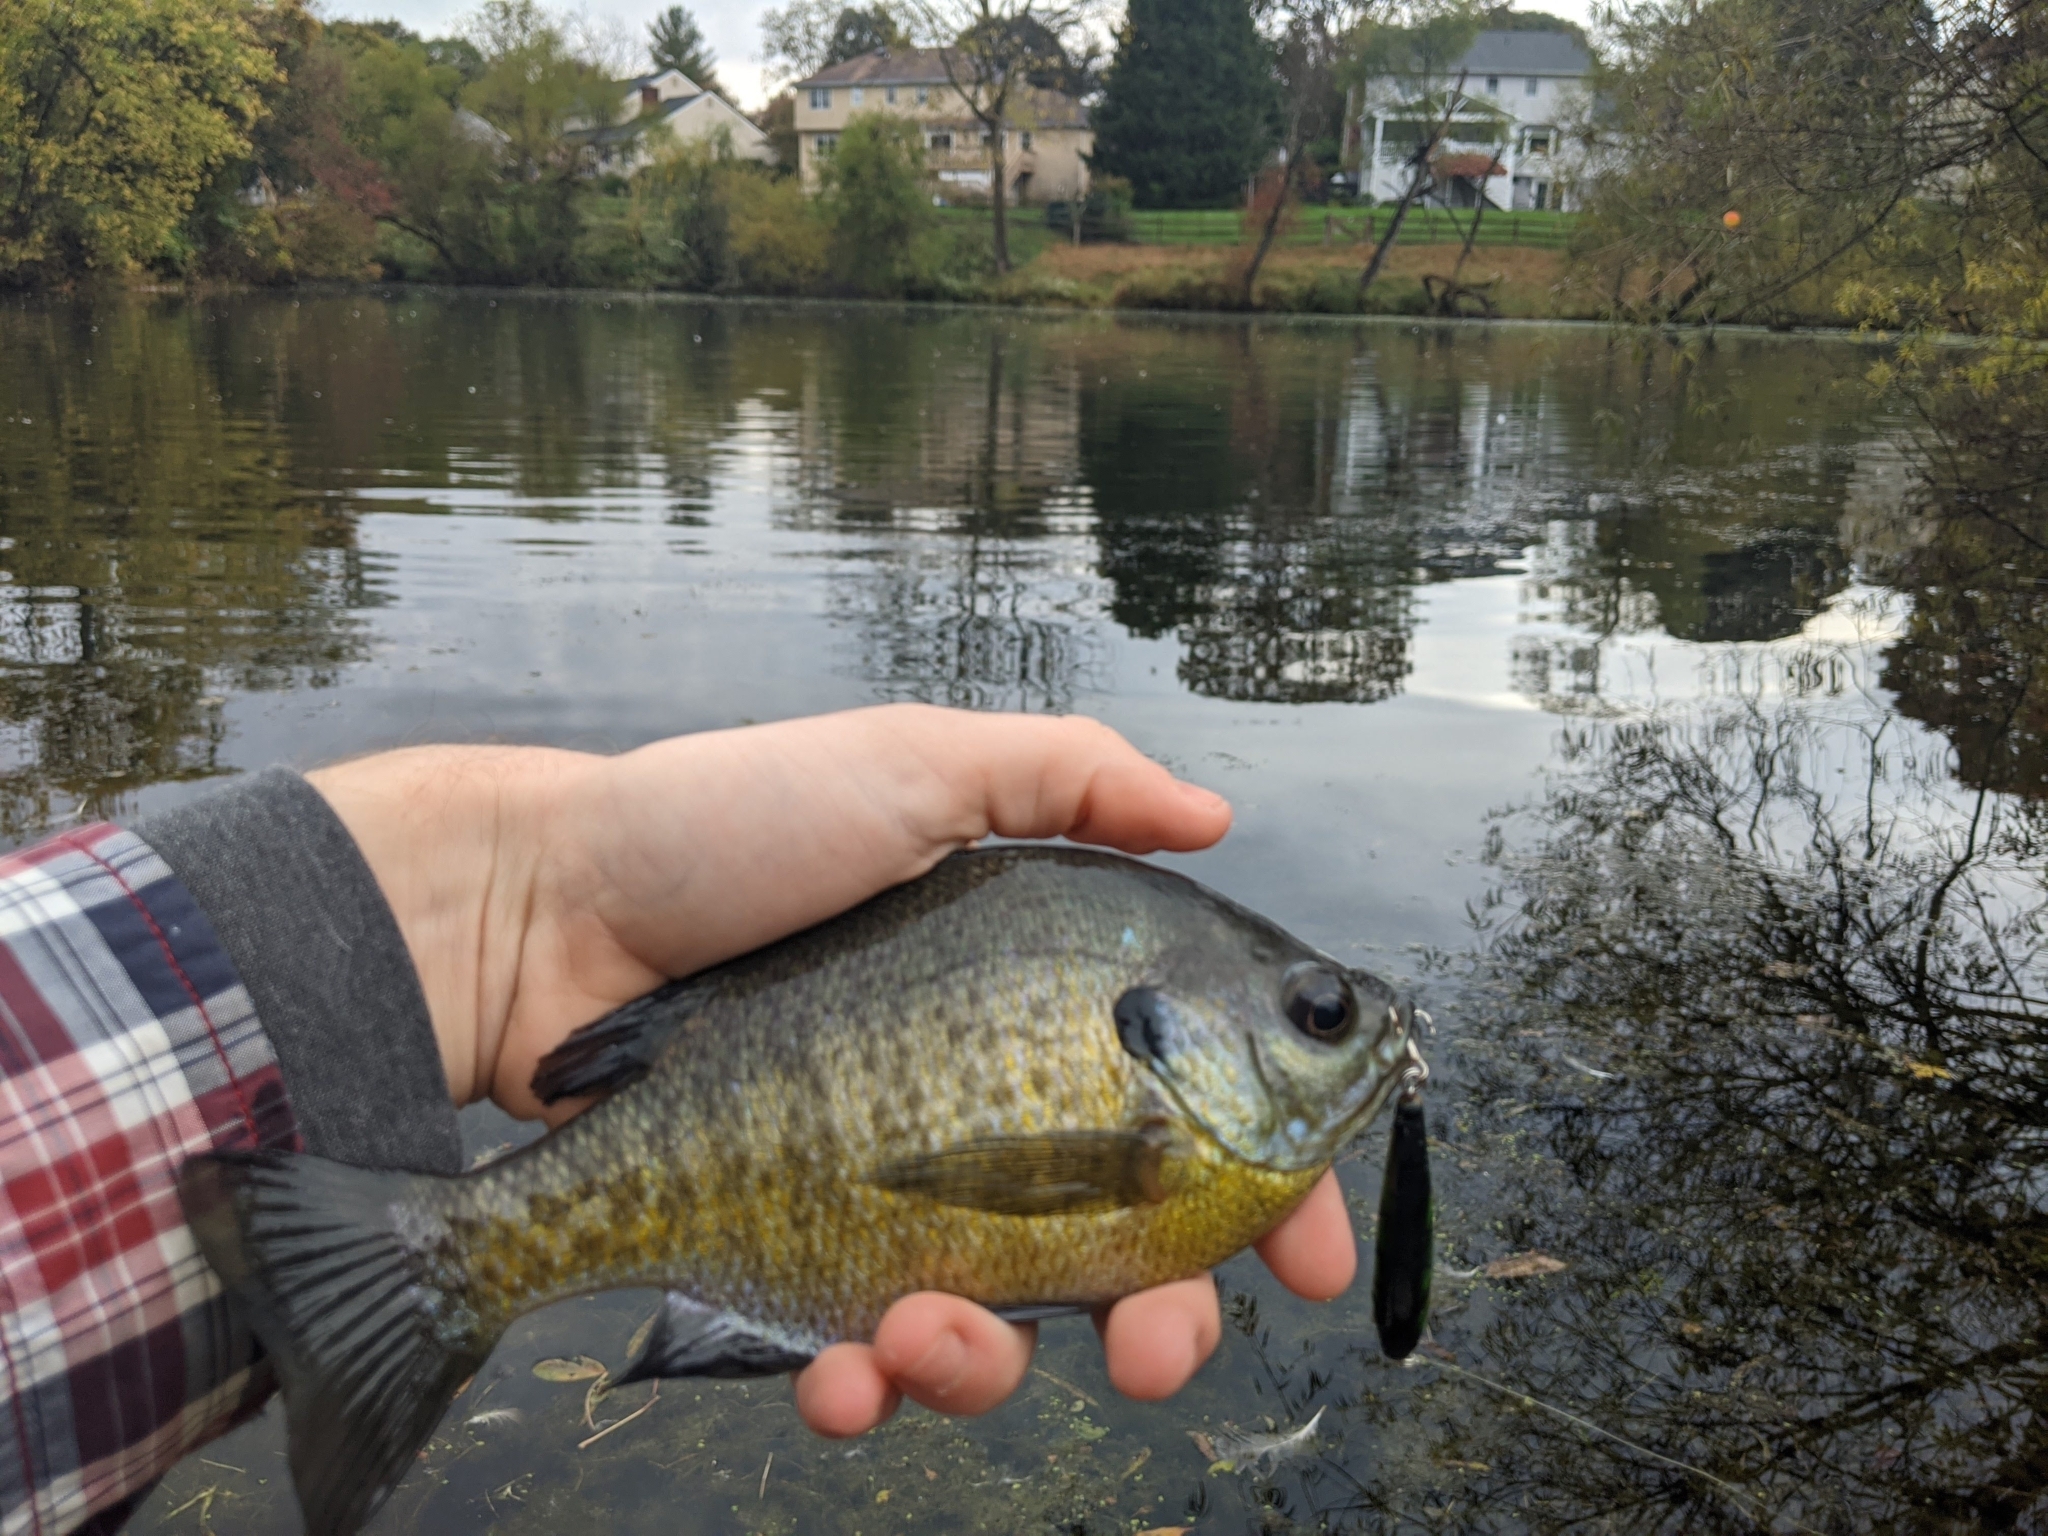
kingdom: Animalia
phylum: Chordata
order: Perciformes
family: Centrarchidae
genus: Lepomis
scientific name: Lepomis macrochirus
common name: Bluegill
